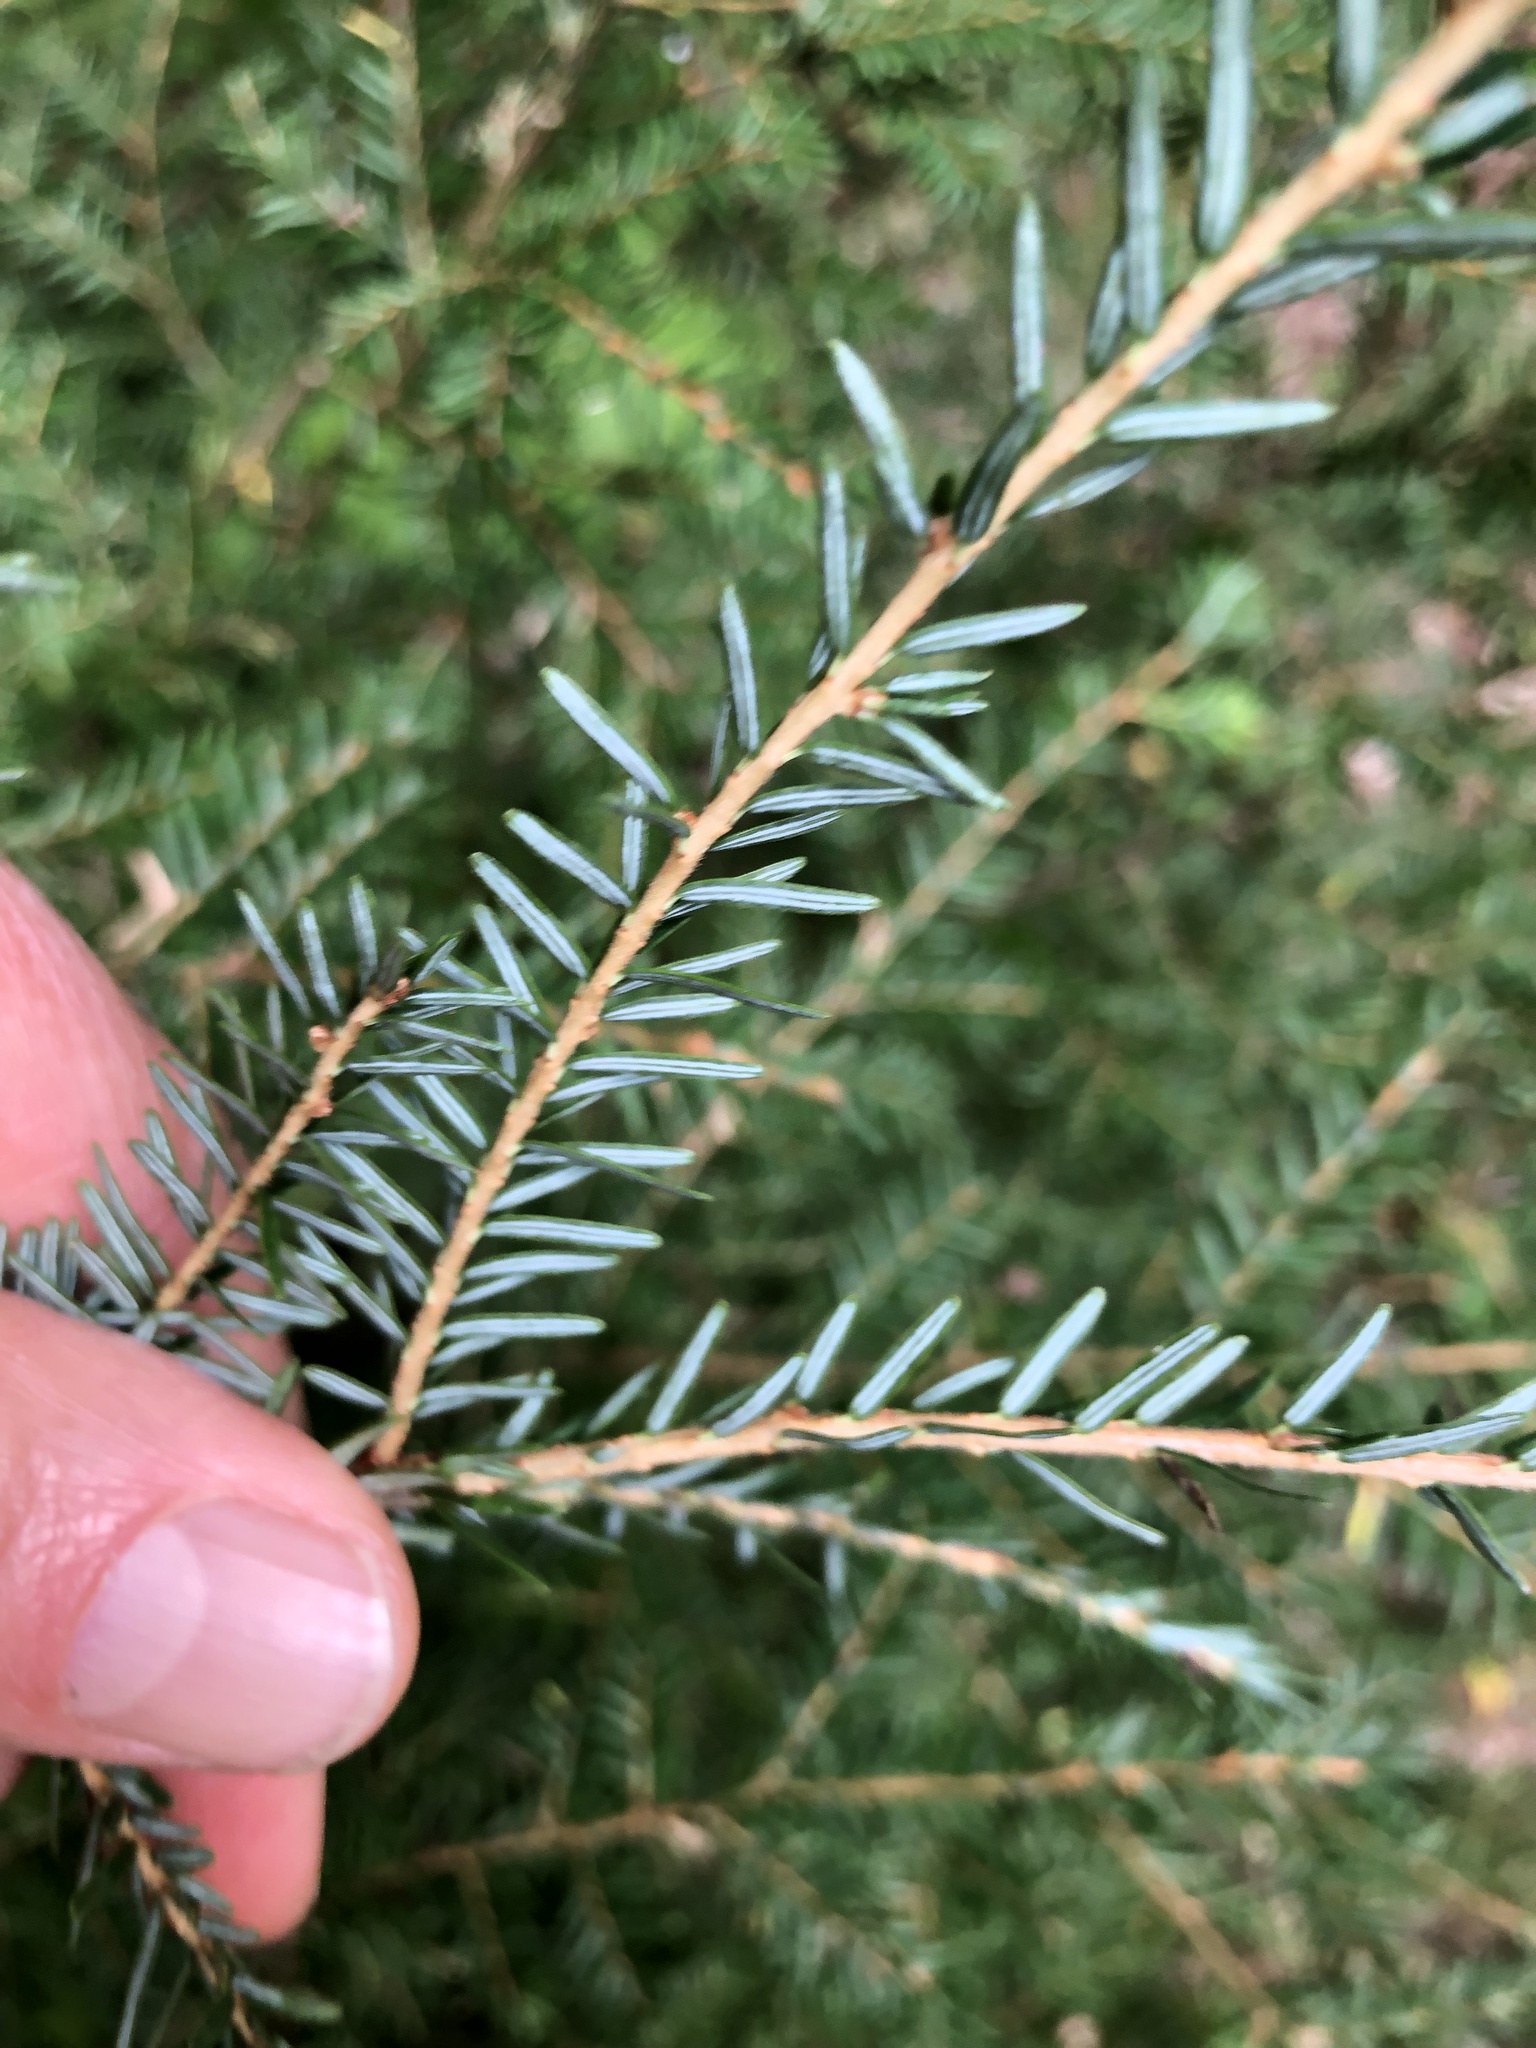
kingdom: Plantae
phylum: Tracheophyta
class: Pinopsida
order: Pinales
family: Pinaceae
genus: Tsuga
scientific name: Tsuga canadensis
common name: Eastern hemlock
